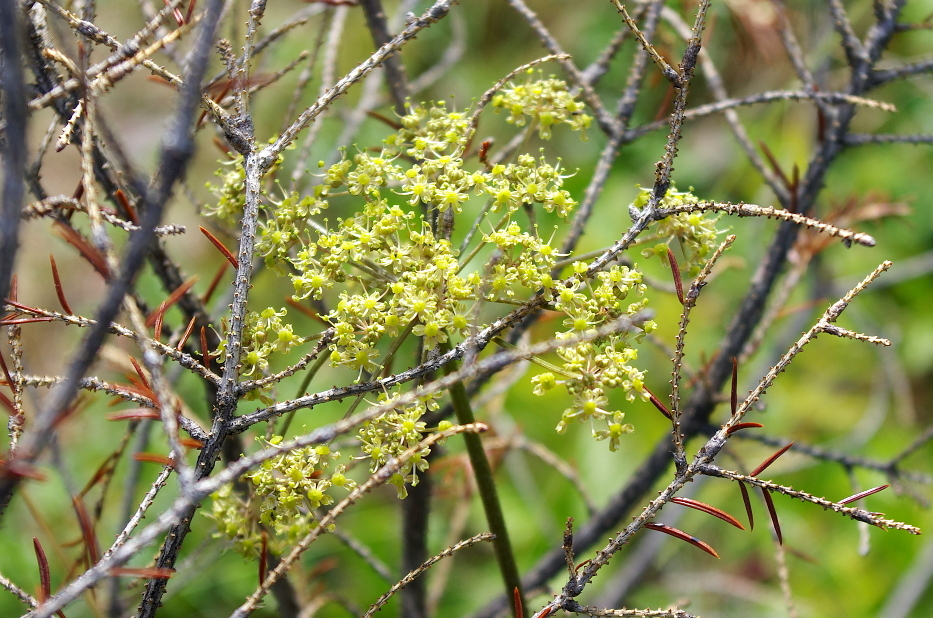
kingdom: Plantae
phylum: Tracheophyta
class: Magnoliopsida
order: Apiales
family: Apiaceae
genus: Heracleum
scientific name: Heracleum sphondylium
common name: Hogweed
